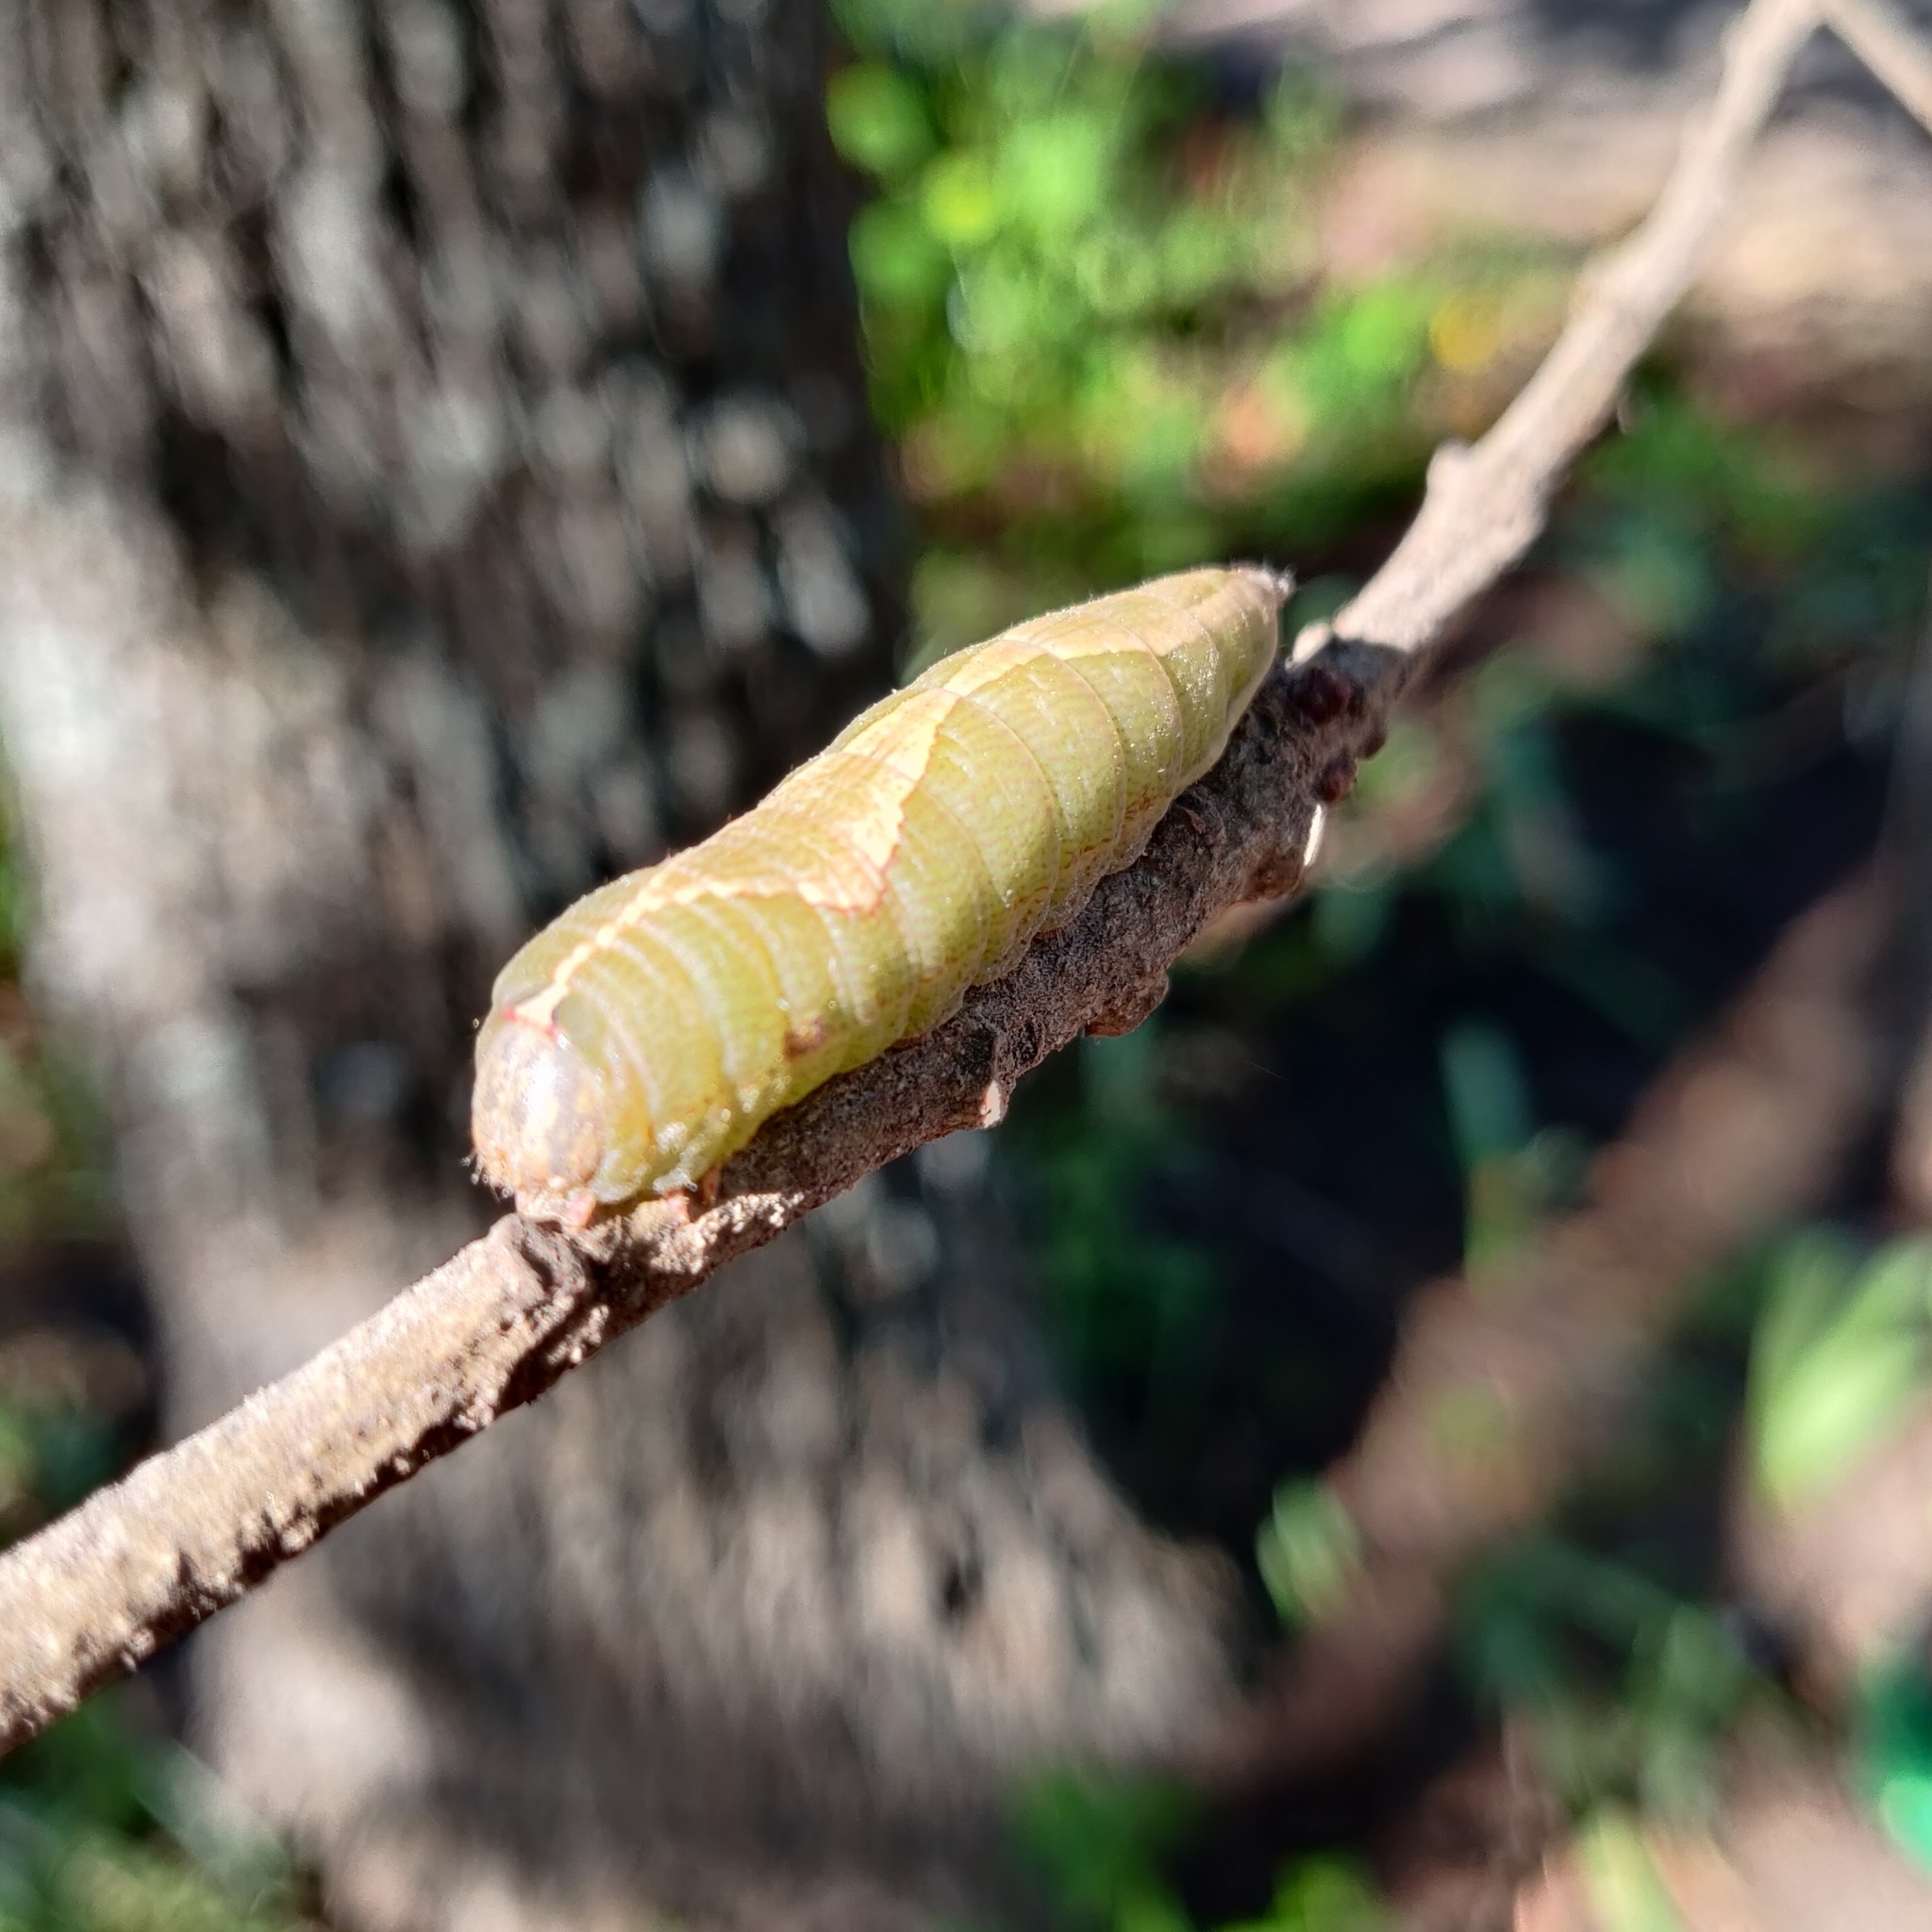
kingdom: Animalia
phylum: Arthropoda
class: Insecta
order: Lepidoptera
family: Notodontidae
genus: Heterocampa
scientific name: Heterocampa obliqua
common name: Oblique heterocampa
